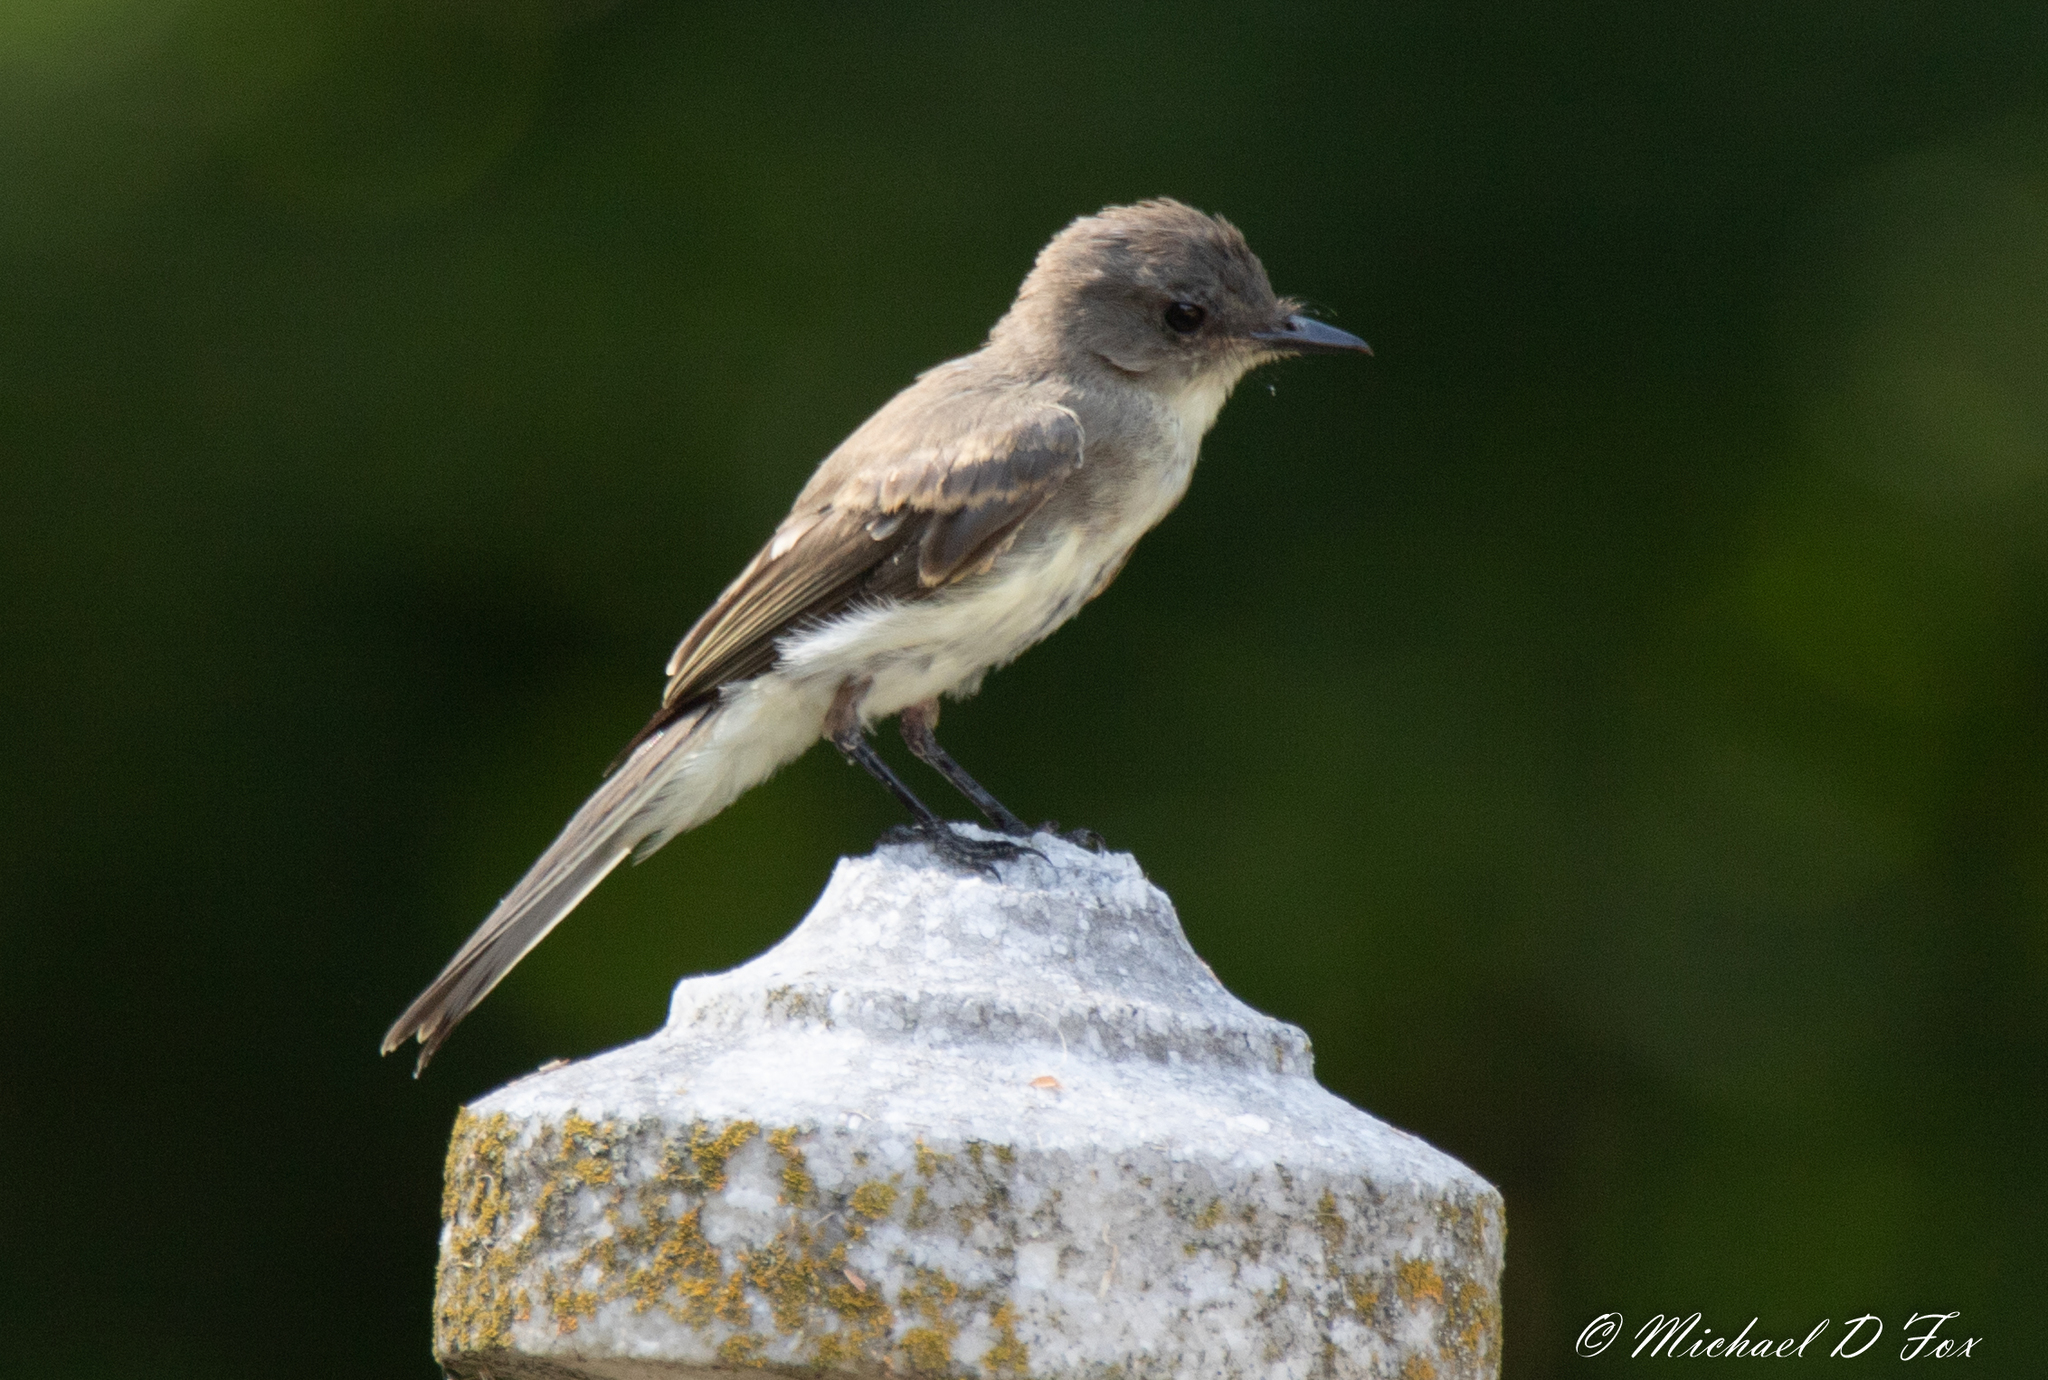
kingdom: Animalia
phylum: Chordata
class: Aves
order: Passeriformes
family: Tyrannidae
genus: Sayornis
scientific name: Sayornis phoebe
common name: Eastern phoebe
